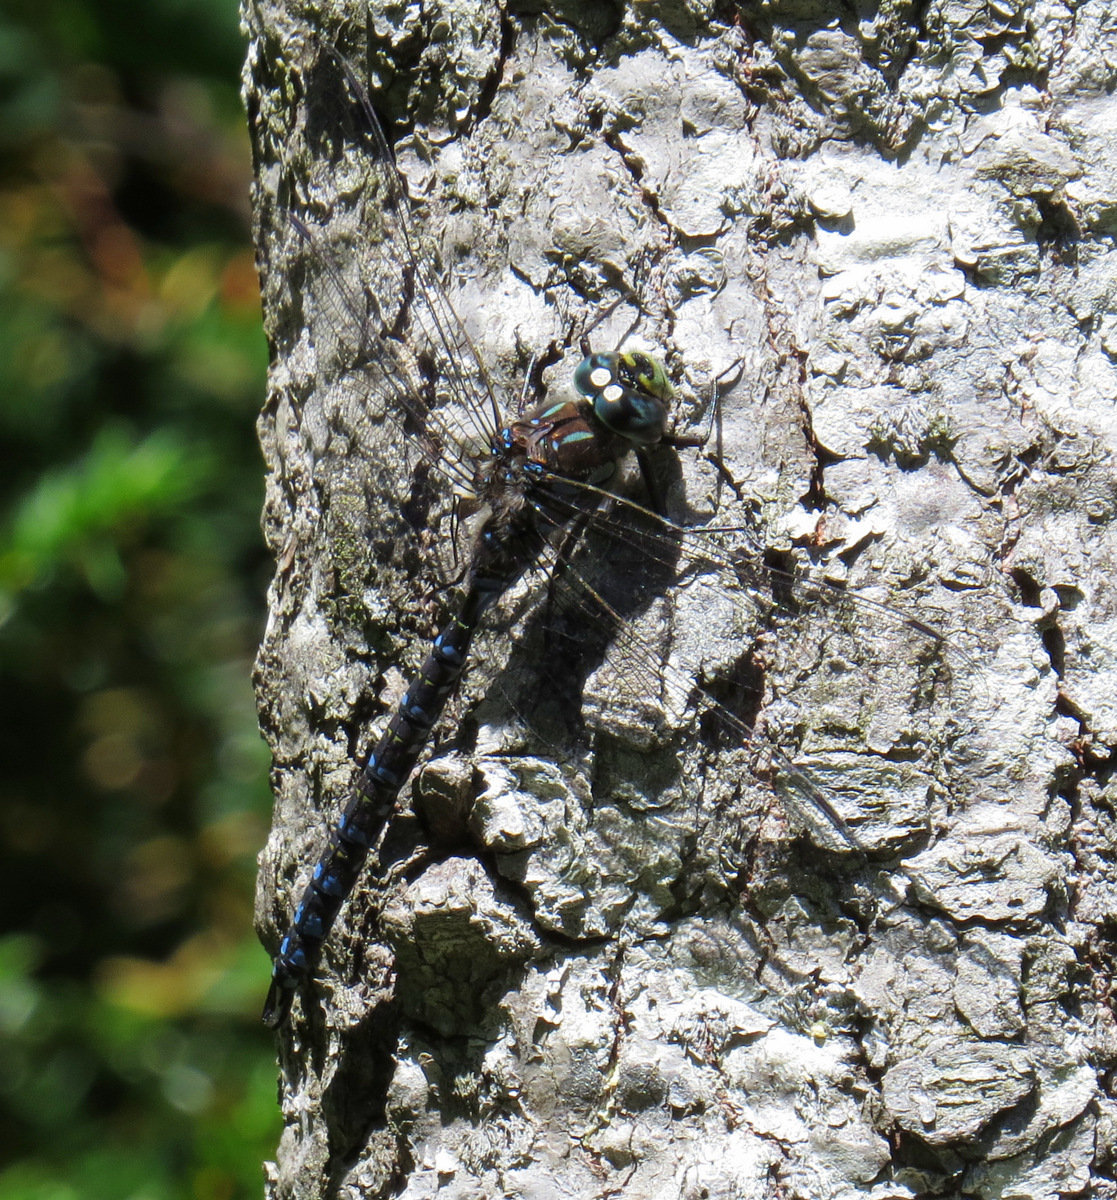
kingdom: Animalia
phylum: Arthropoda
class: Insecta
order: Odonata
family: Aeshnidae
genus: Aeshna
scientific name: Aeshna eremita
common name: Lake darner
